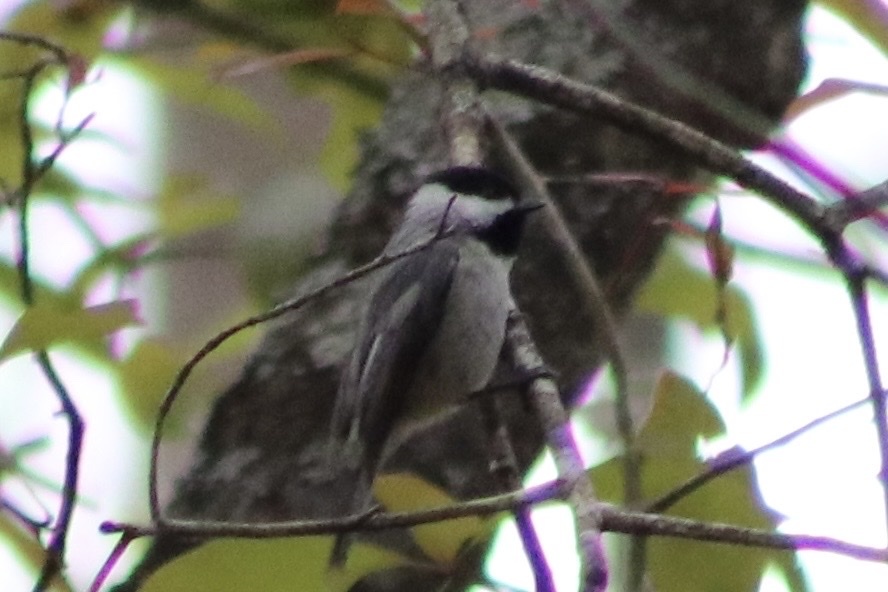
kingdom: Animalia
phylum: Chordata
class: Aves
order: Passeriformes
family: Paridae
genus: Poecile
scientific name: Poecile carolinensis
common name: Carolina chickadee
